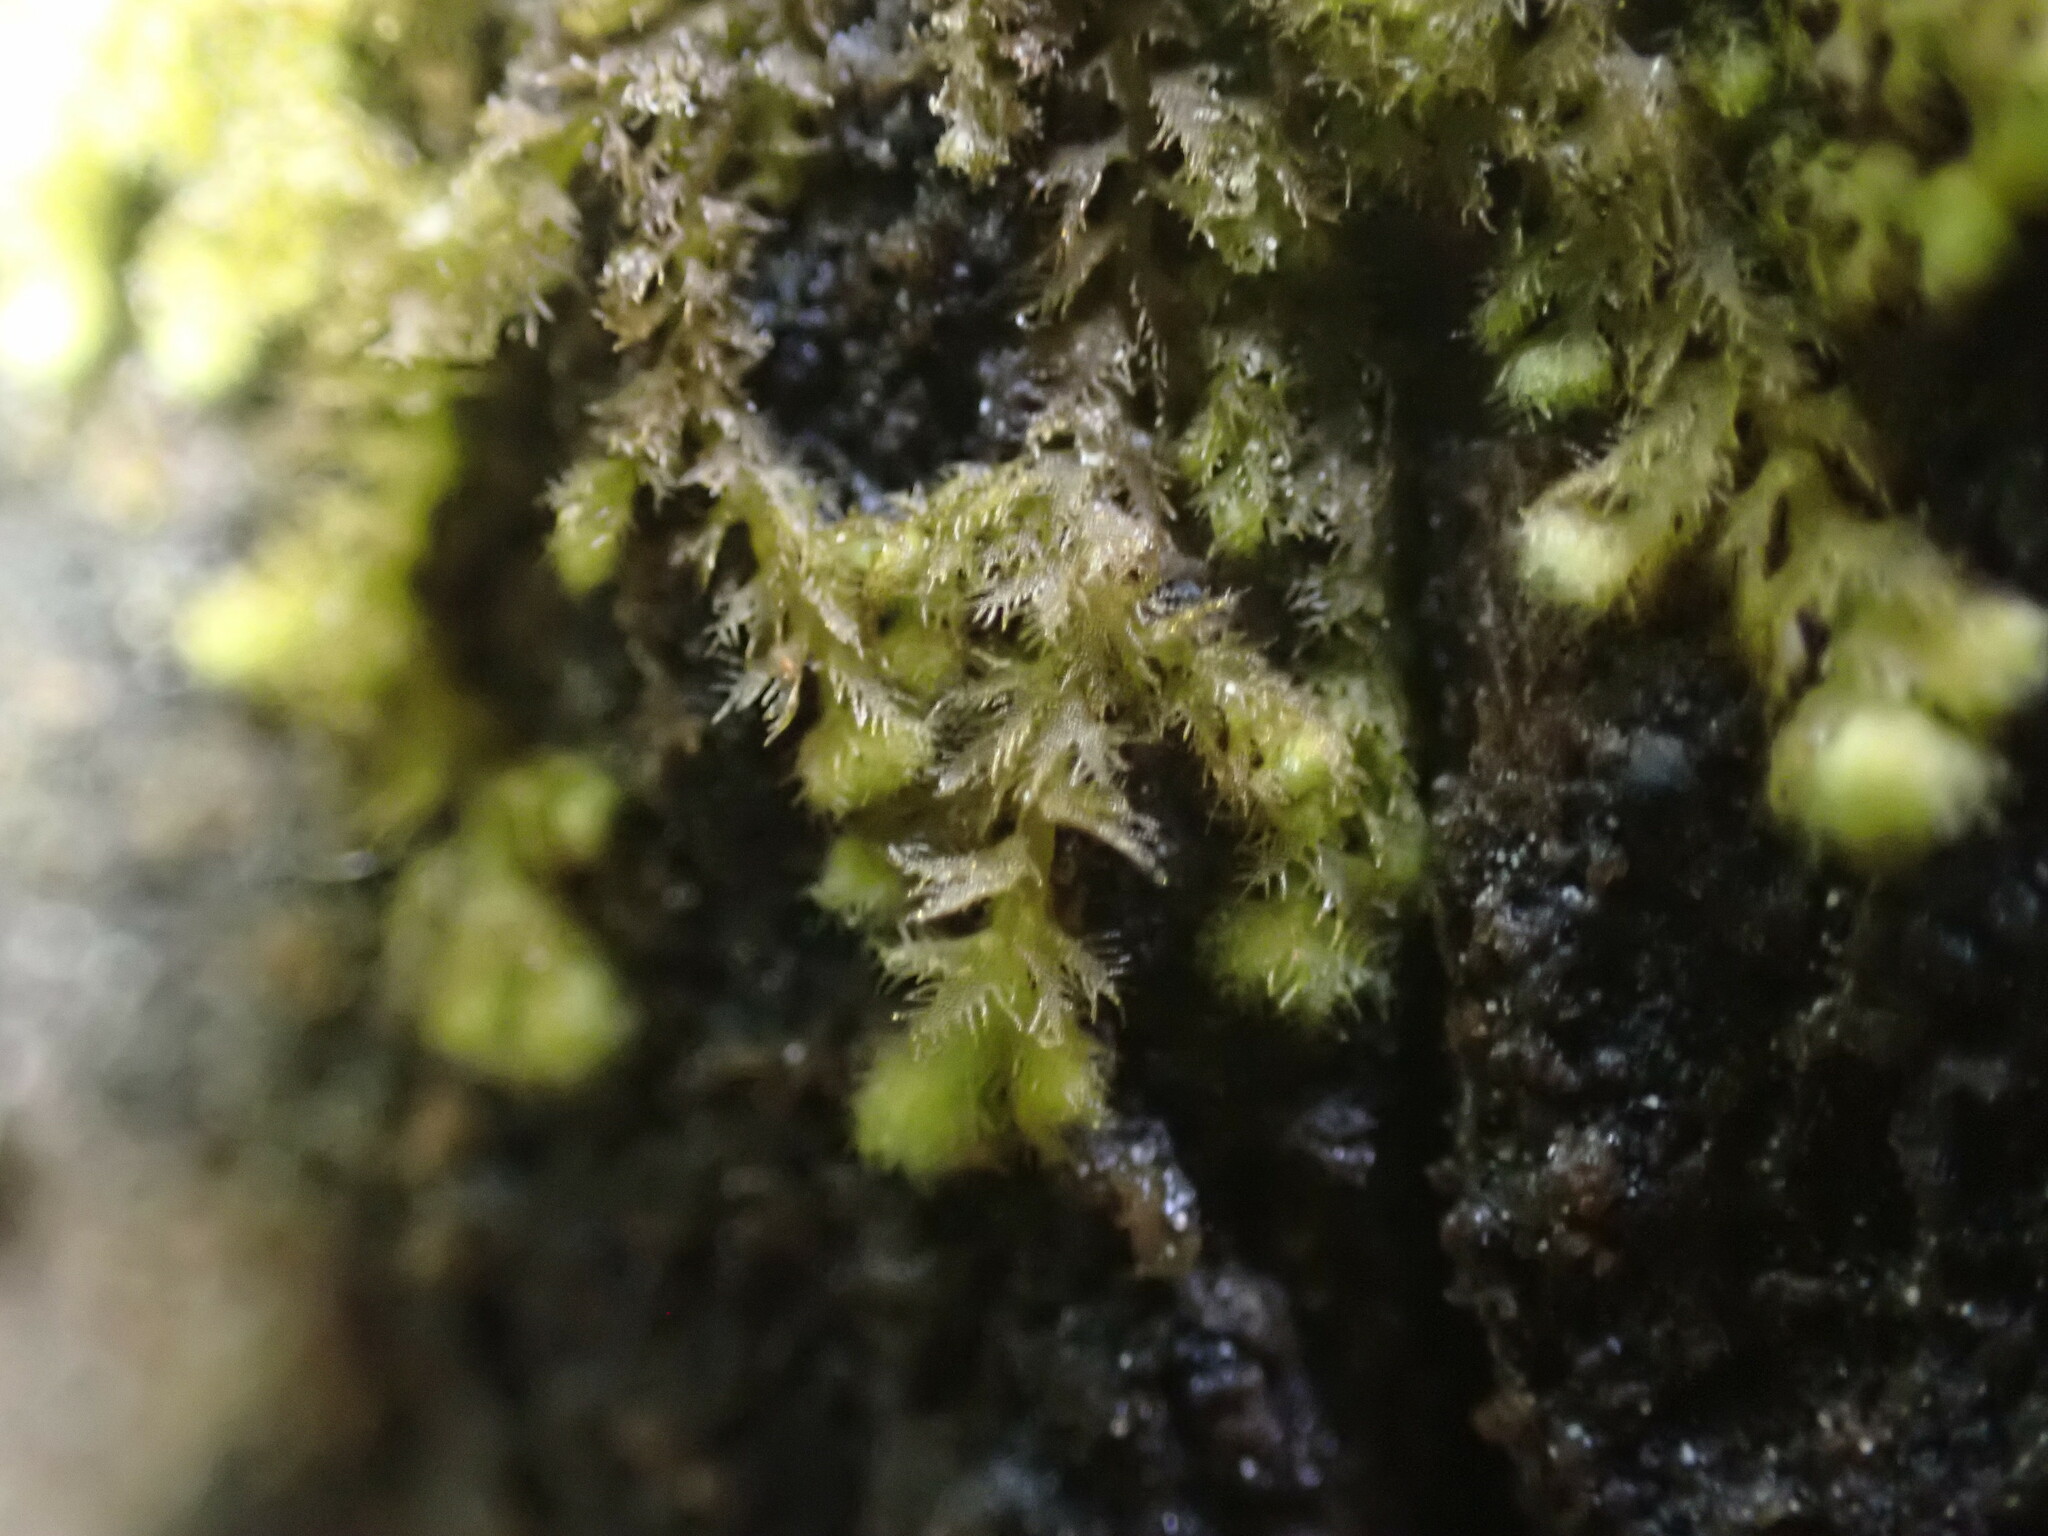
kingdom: Plantae
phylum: Marchantiophyta
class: Jungermanniopsida
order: Ptilidiales
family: Ptilidiaceae
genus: Ptilidium
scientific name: Ptilidium pulcherrimum
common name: Tree fringewort
